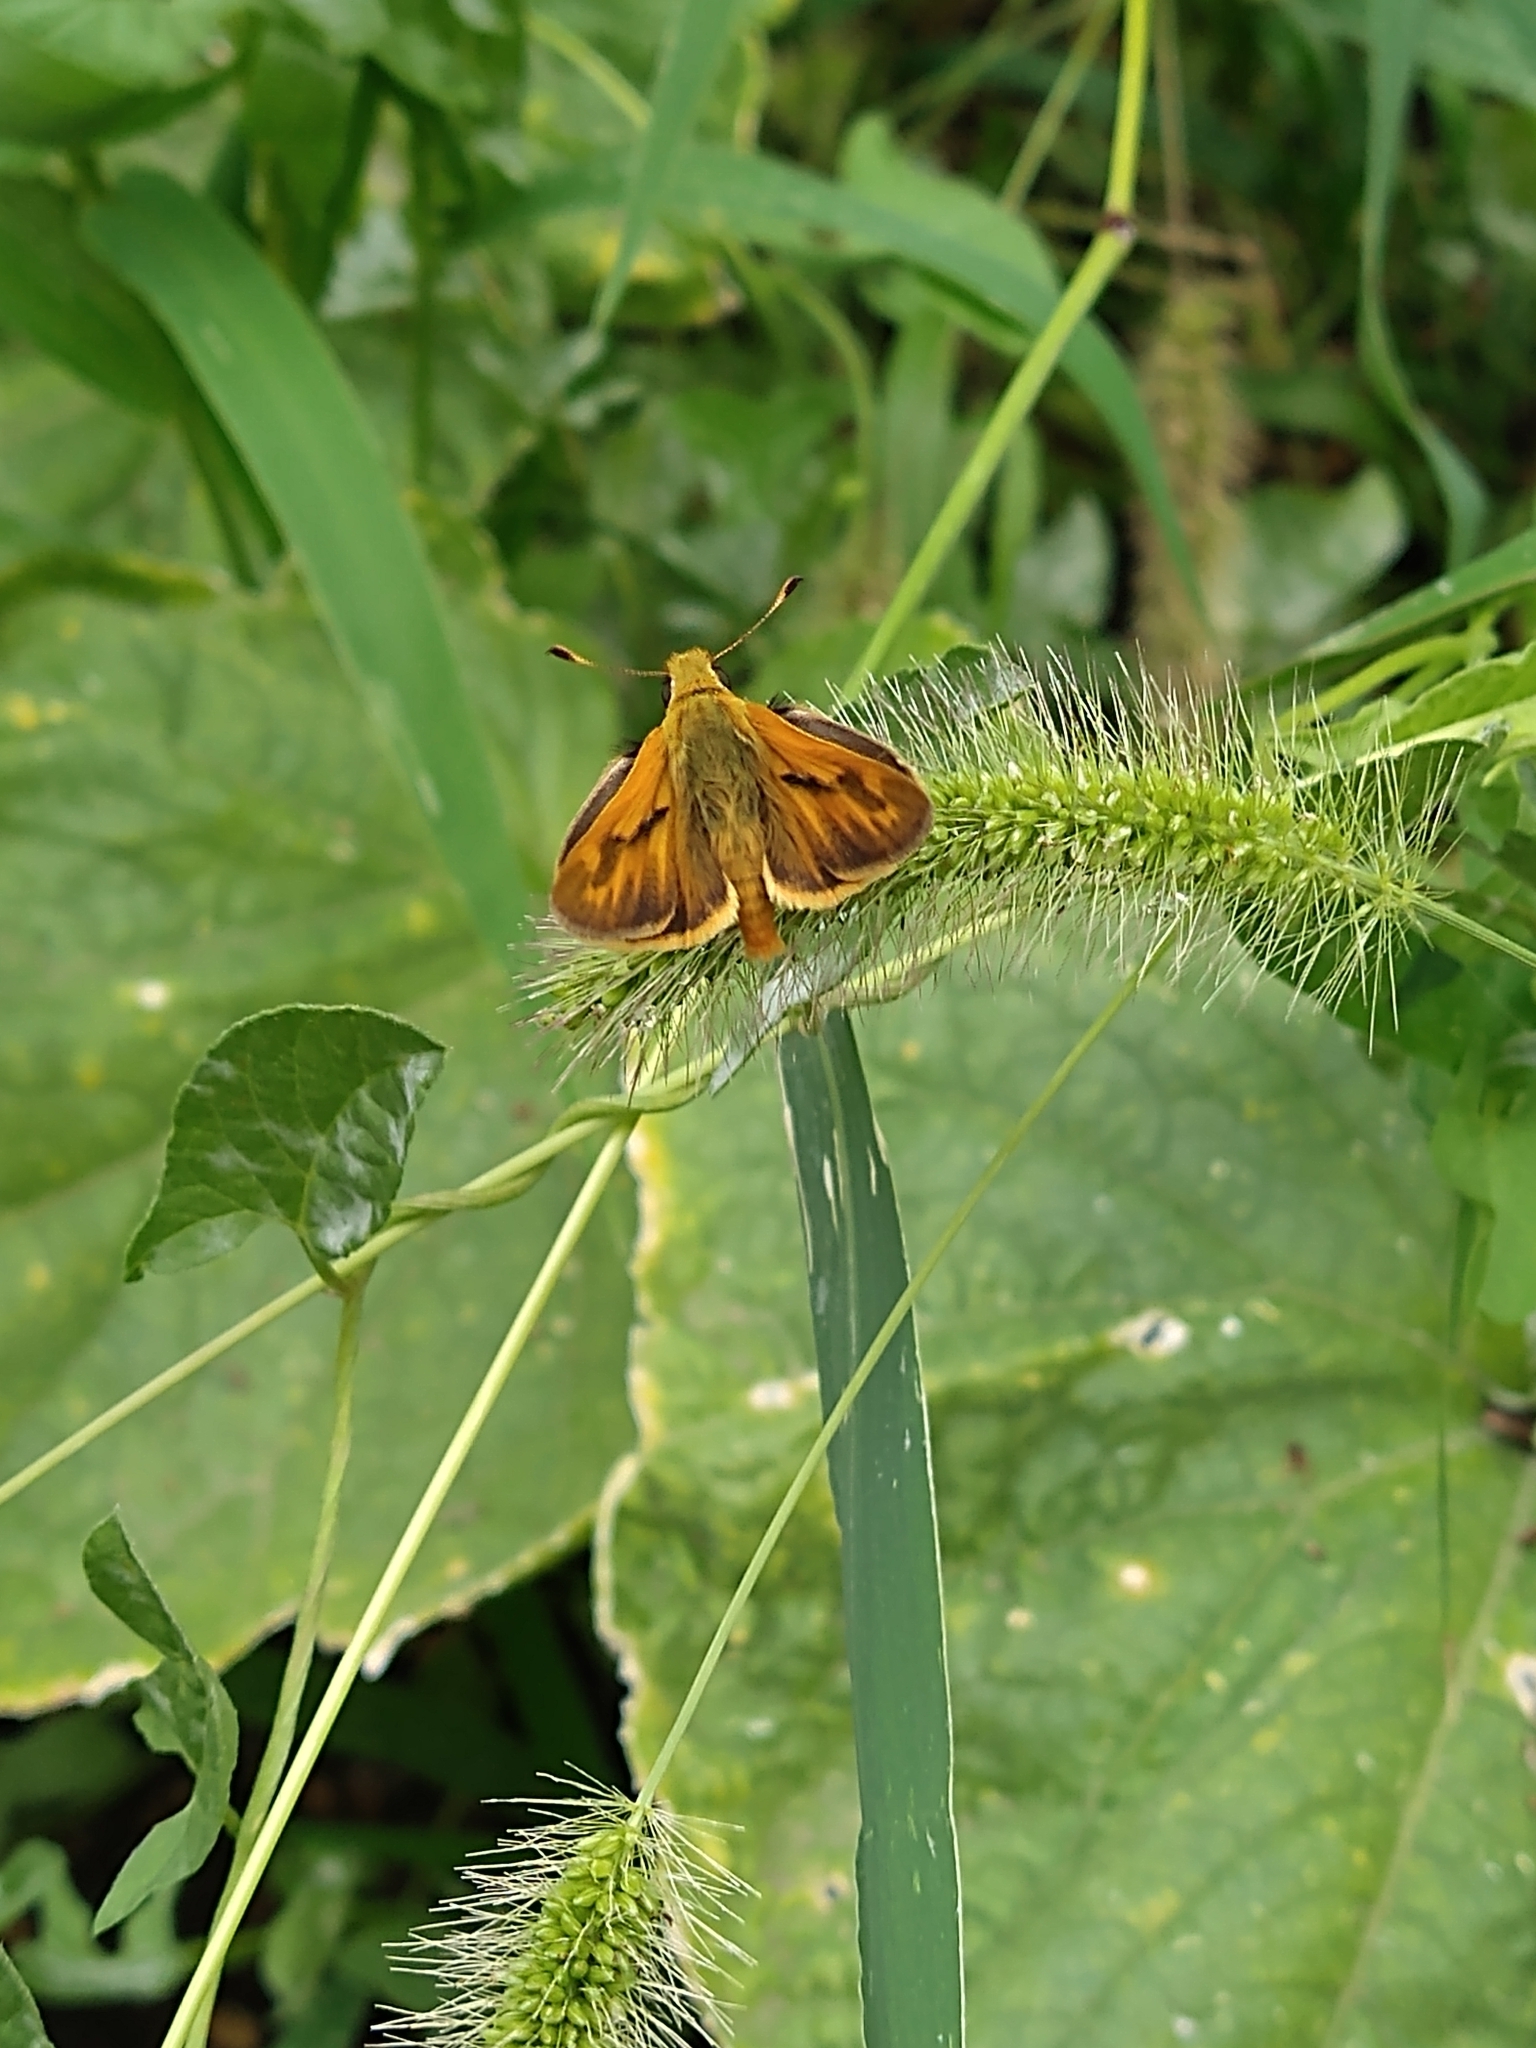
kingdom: Animalia
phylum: Arthropoda
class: Insecta
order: Lepidoptera
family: Hesperiidae
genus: Ochlodes
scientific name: Ochlodes sylvanoides
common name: Woodland skipper
